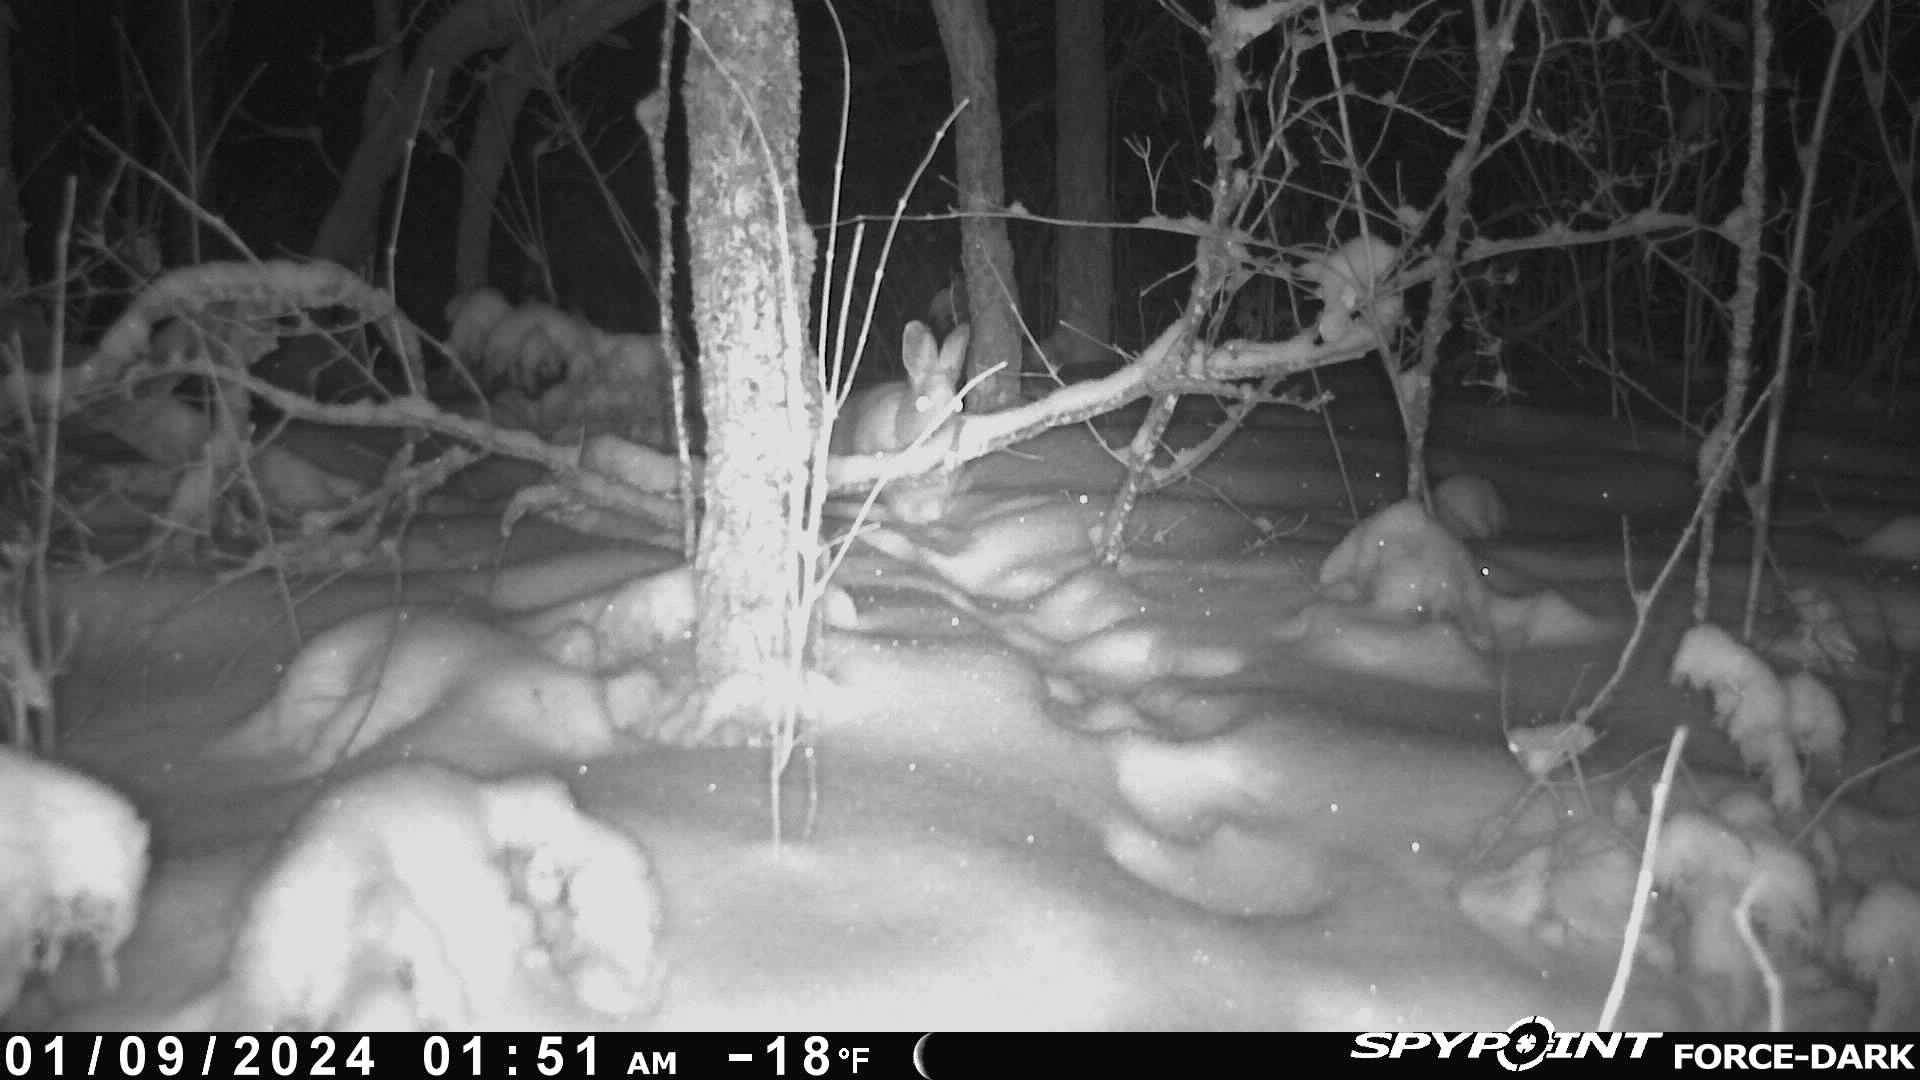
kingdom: Animalia
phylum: Chordata
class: Mammalia
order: Lagomorpha
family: Leporidae
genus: Lepus
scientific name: Lepus americanus
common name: Snowshoe hare
